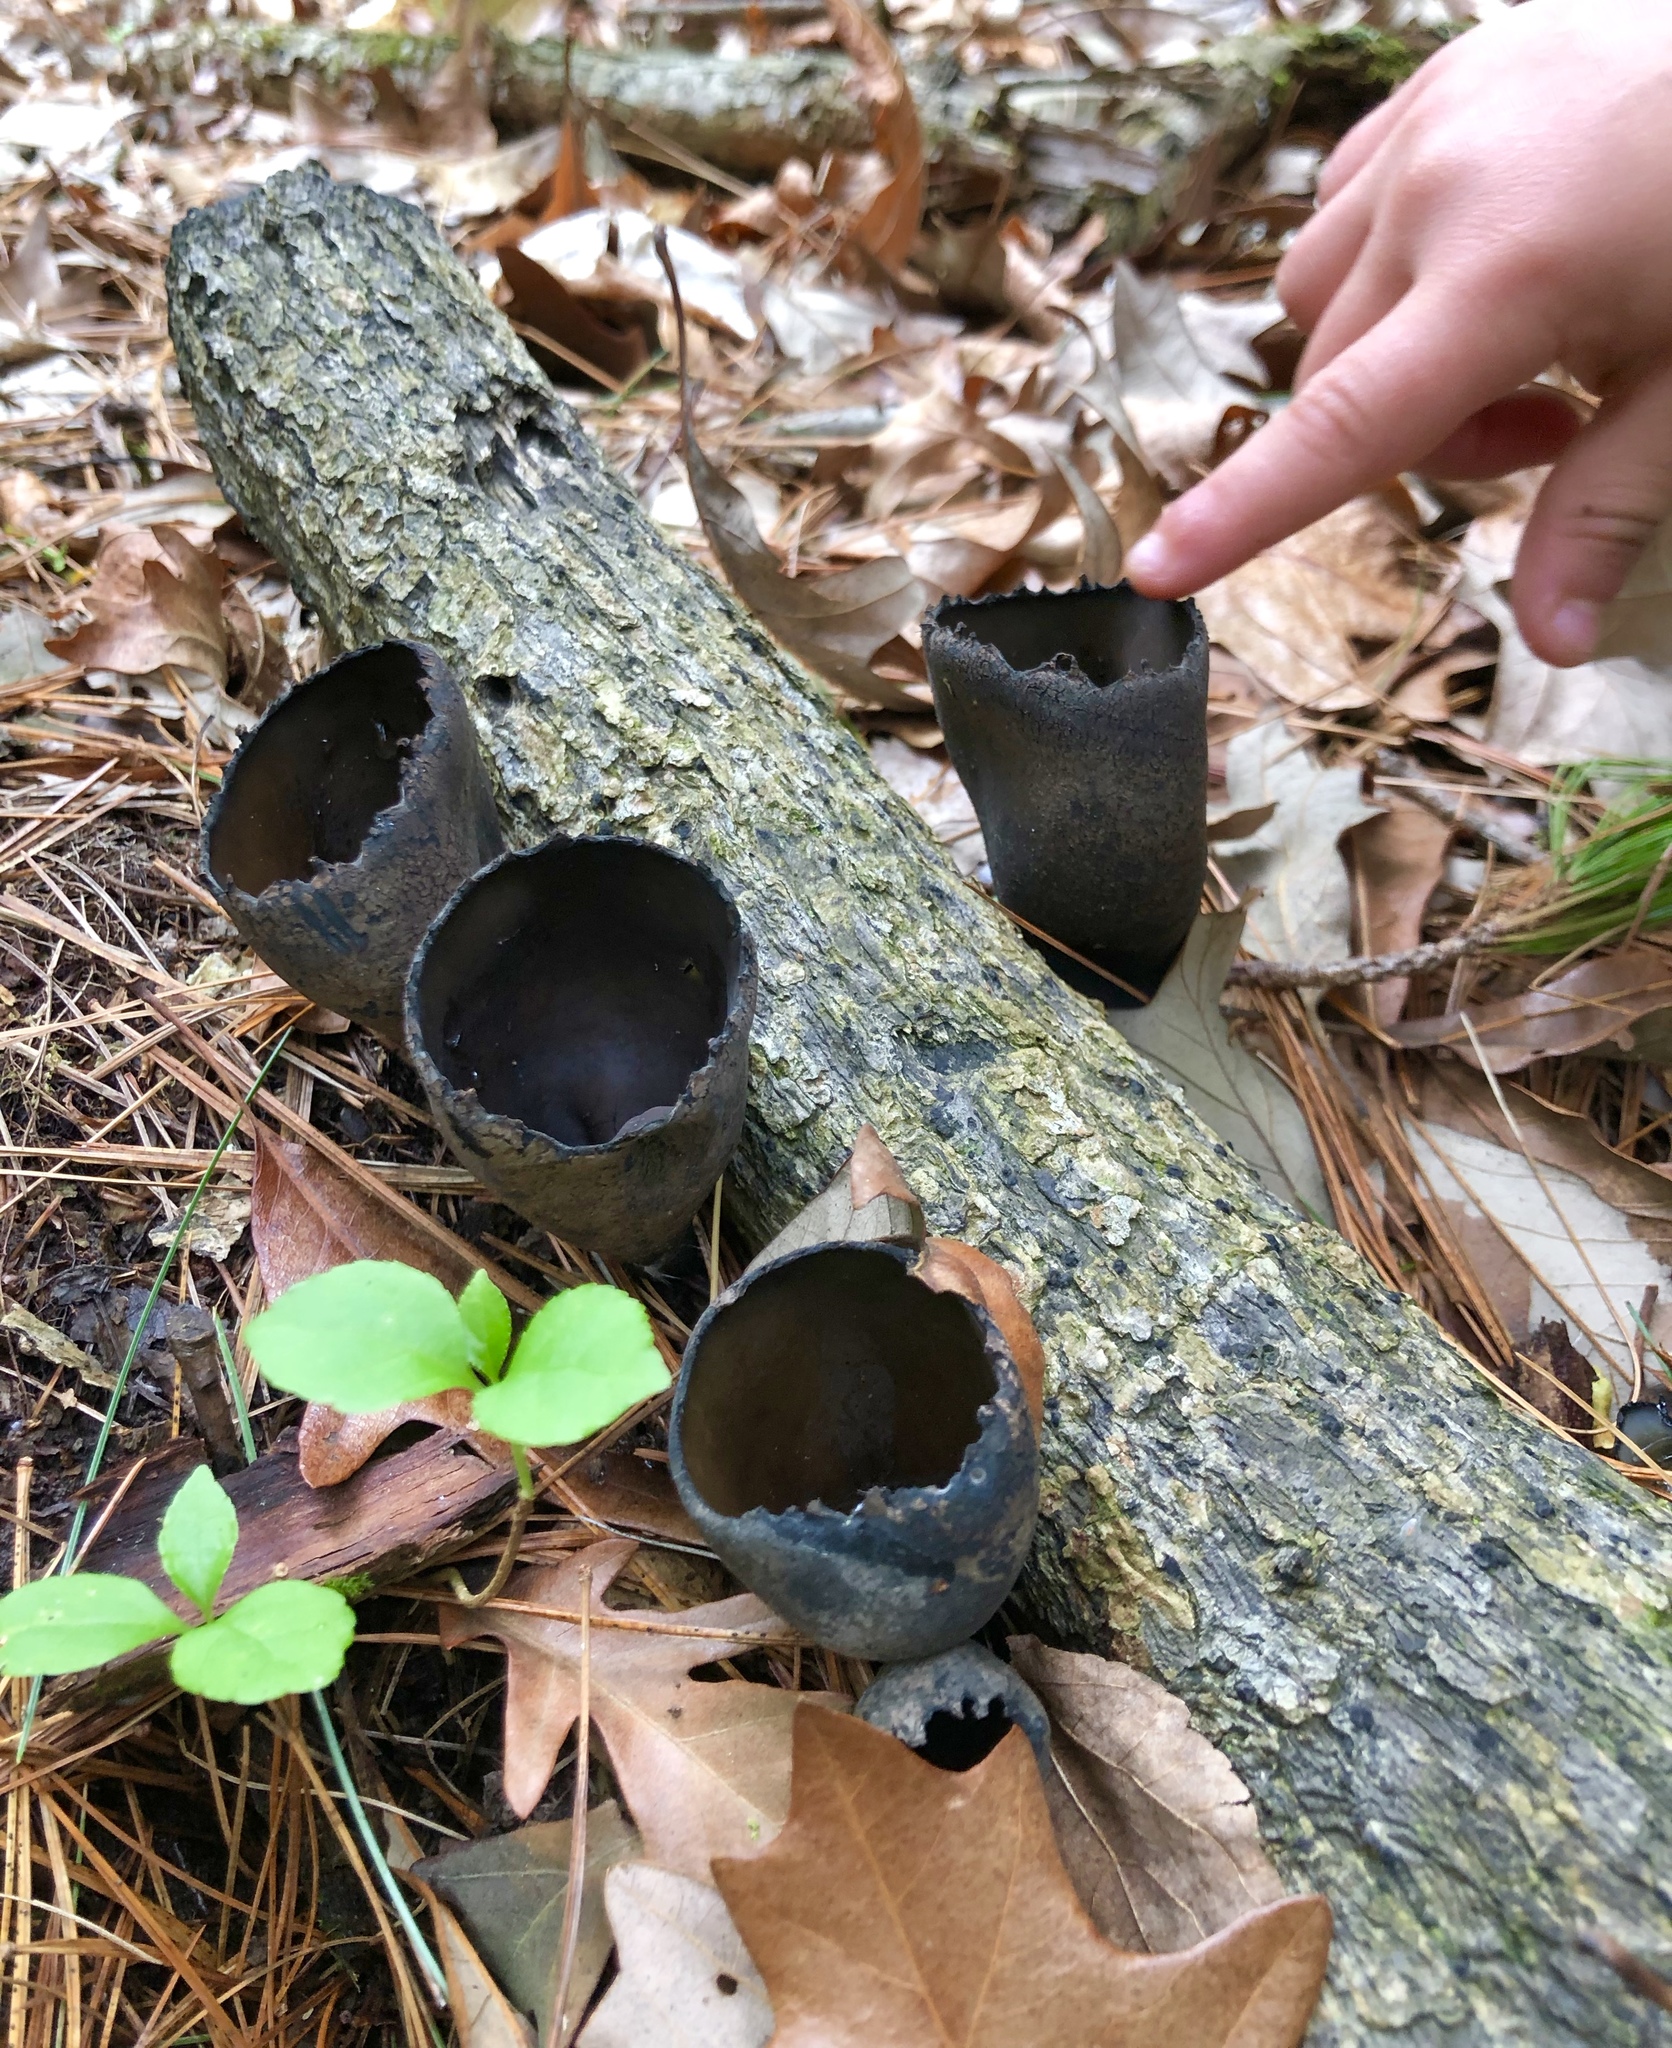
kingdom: Fungi
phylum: Ascomycota
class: Pezizomycetes
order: Pezizales
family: Sarcosomataceae
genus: Urnula
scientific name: Urnula craterium
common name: Devil's urn
